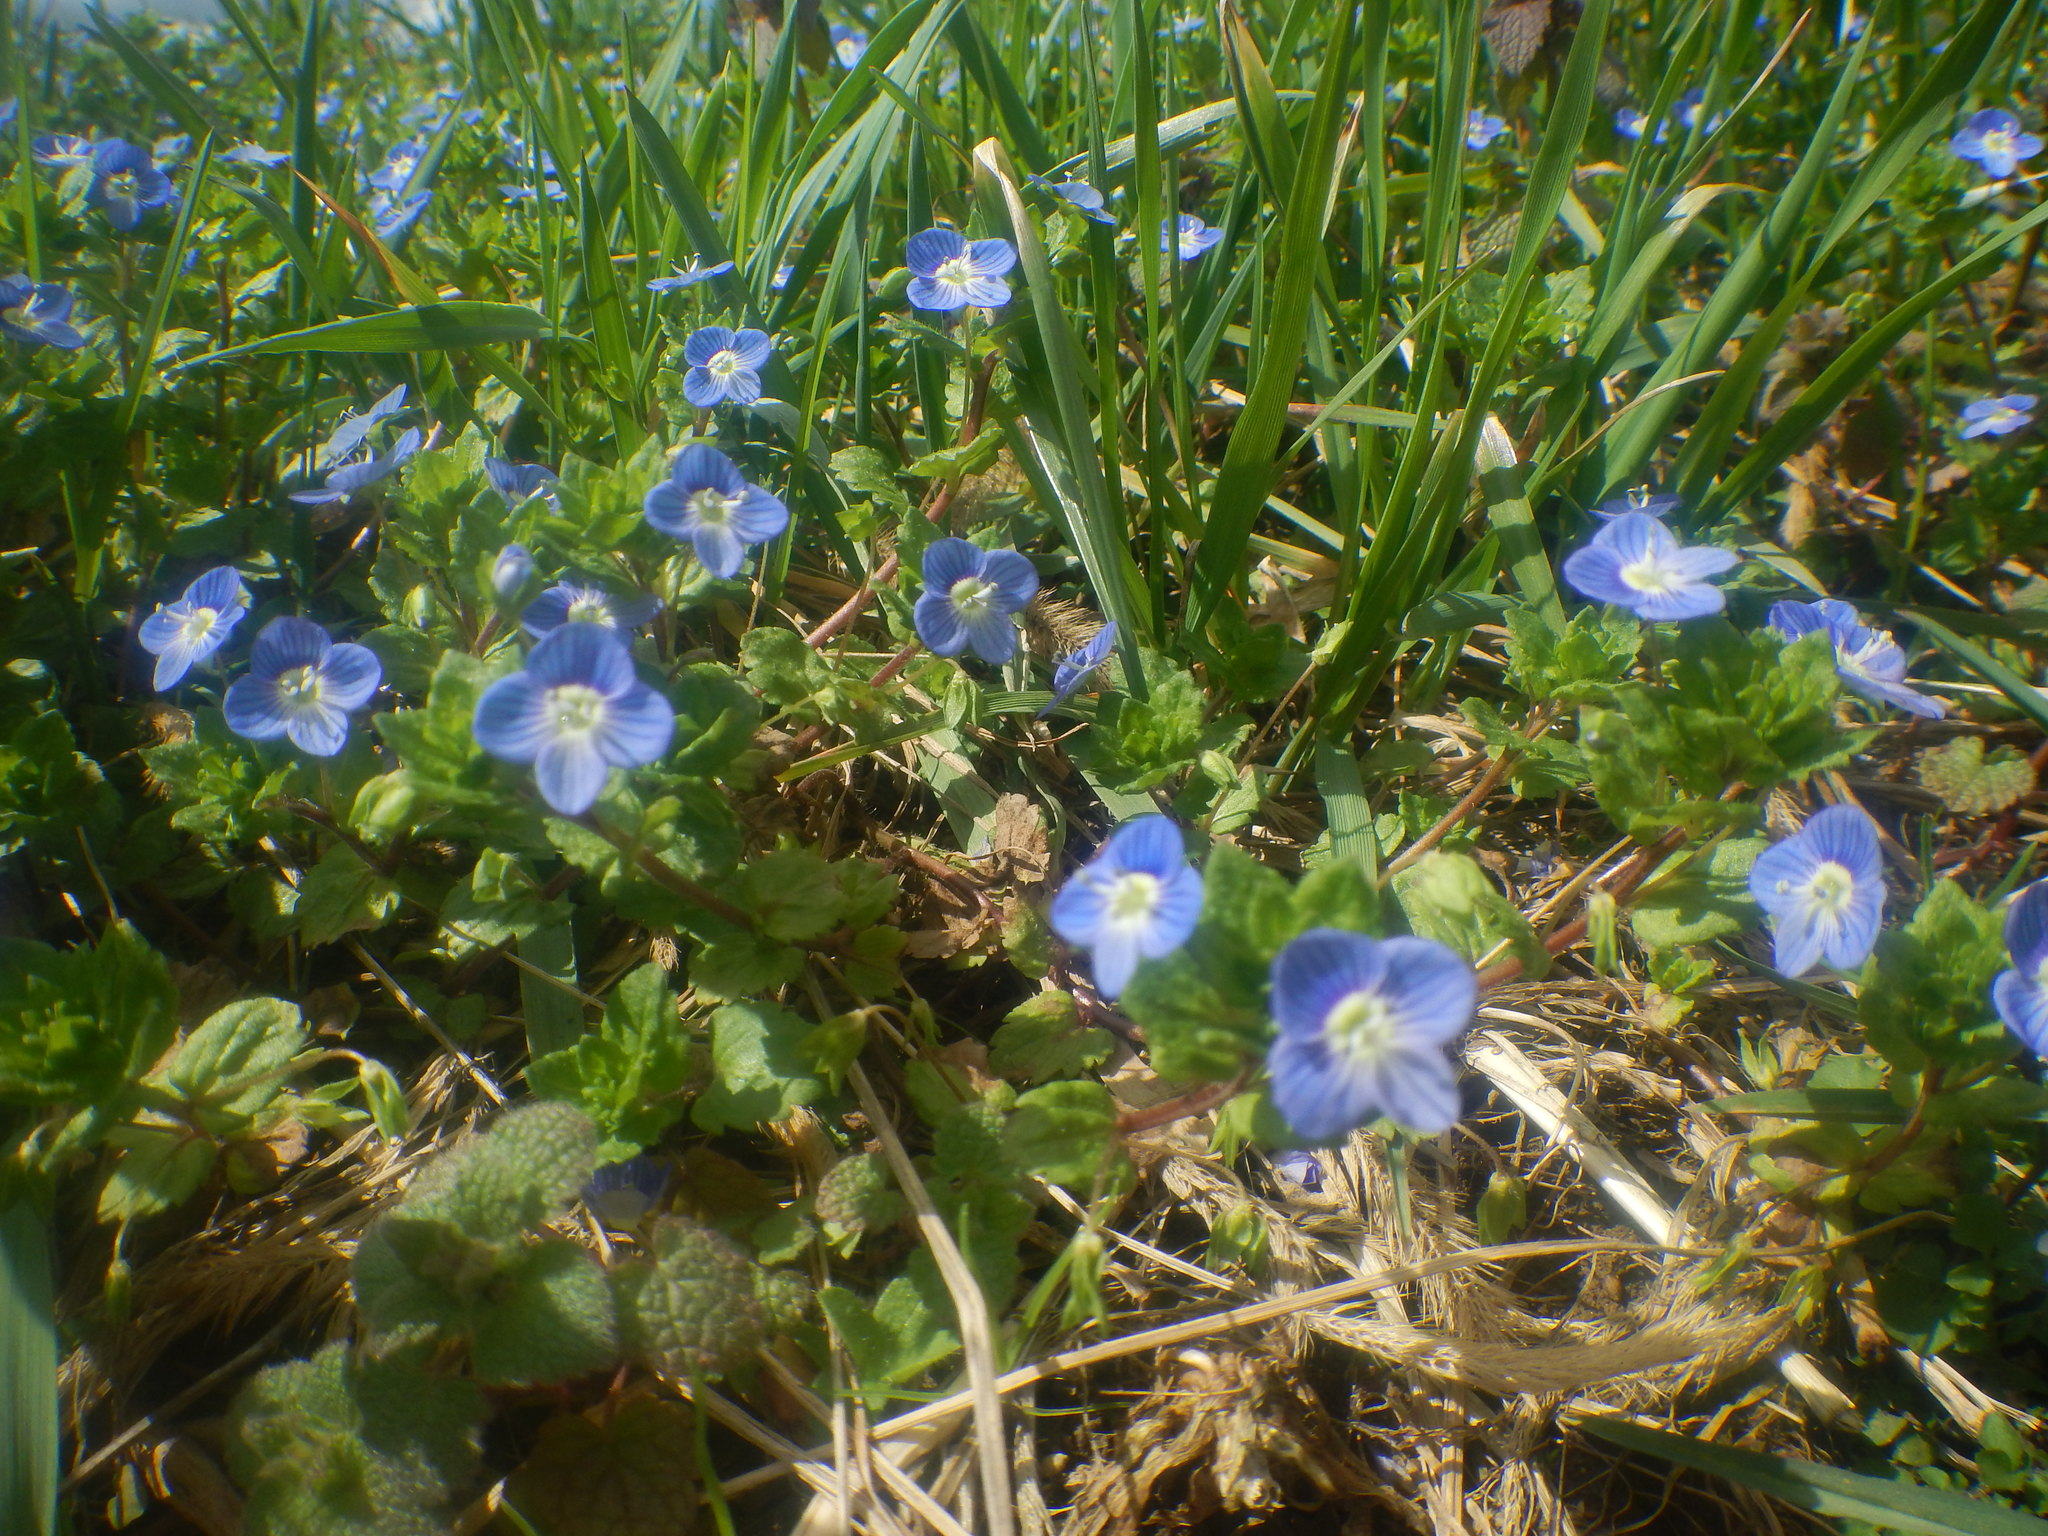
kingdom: Plantae
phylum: Tracheophyta
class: Magnoliopsida
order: Lamiales
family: Plantaginaceae
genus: Veronica
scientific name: Veronica persica
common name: Common field-speedwell
